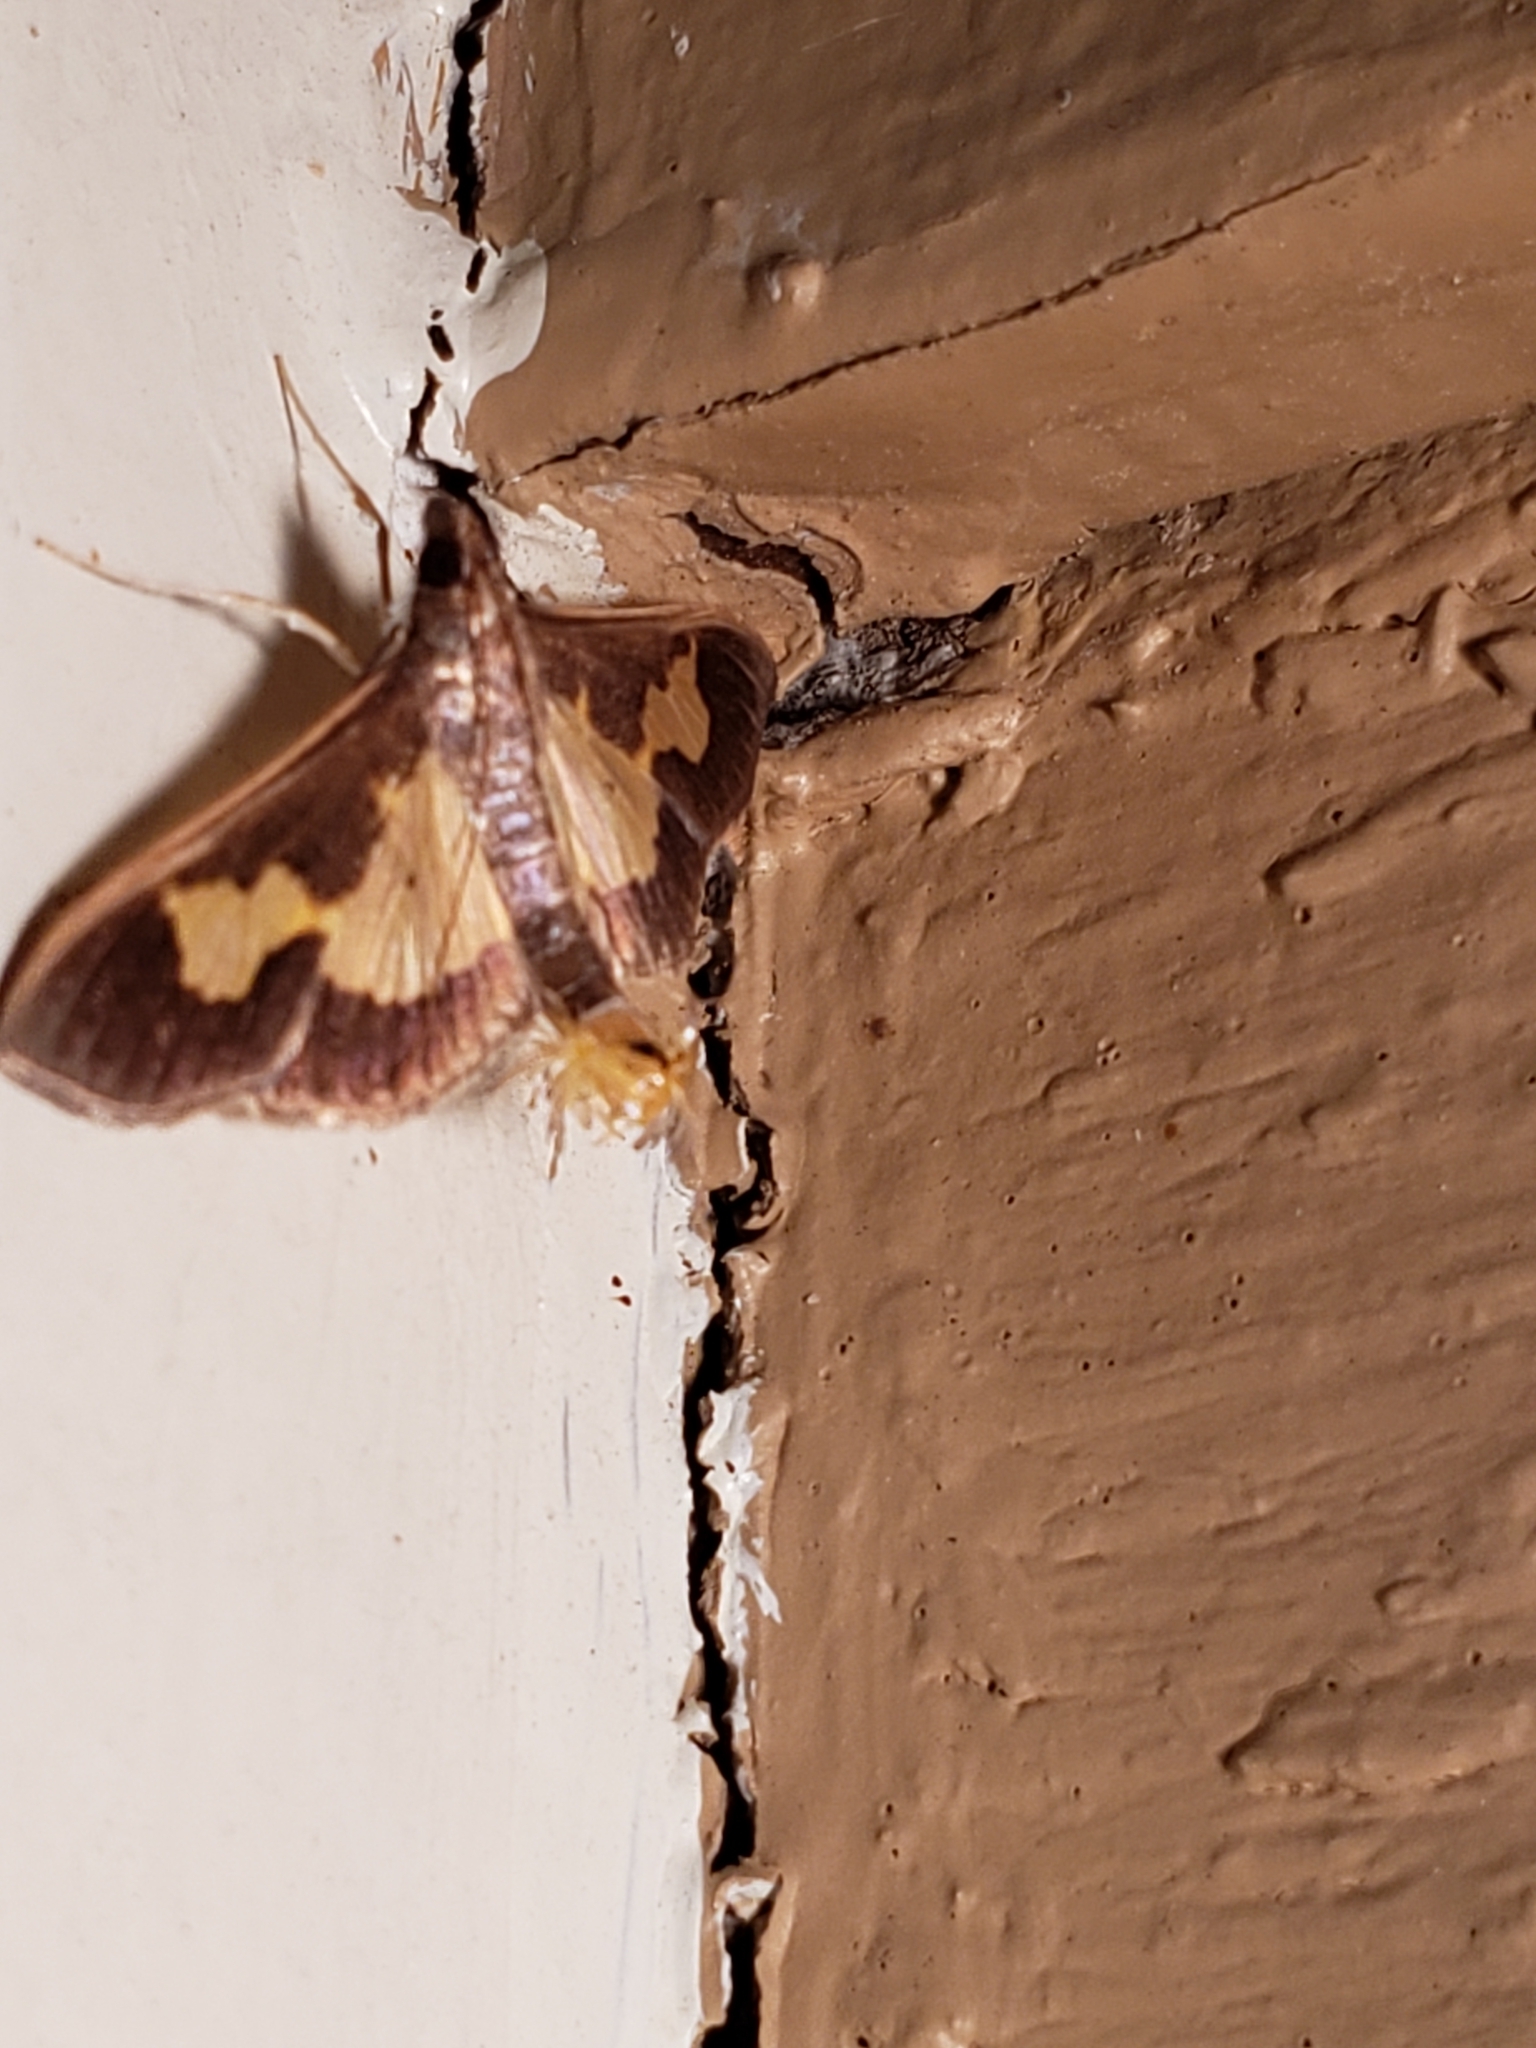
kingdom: Animalia
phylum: Arthropoda
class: Insecta
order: Lepidoptera
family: Crambidae
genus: Cryptographis
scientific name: Cryptographis nitidalis
